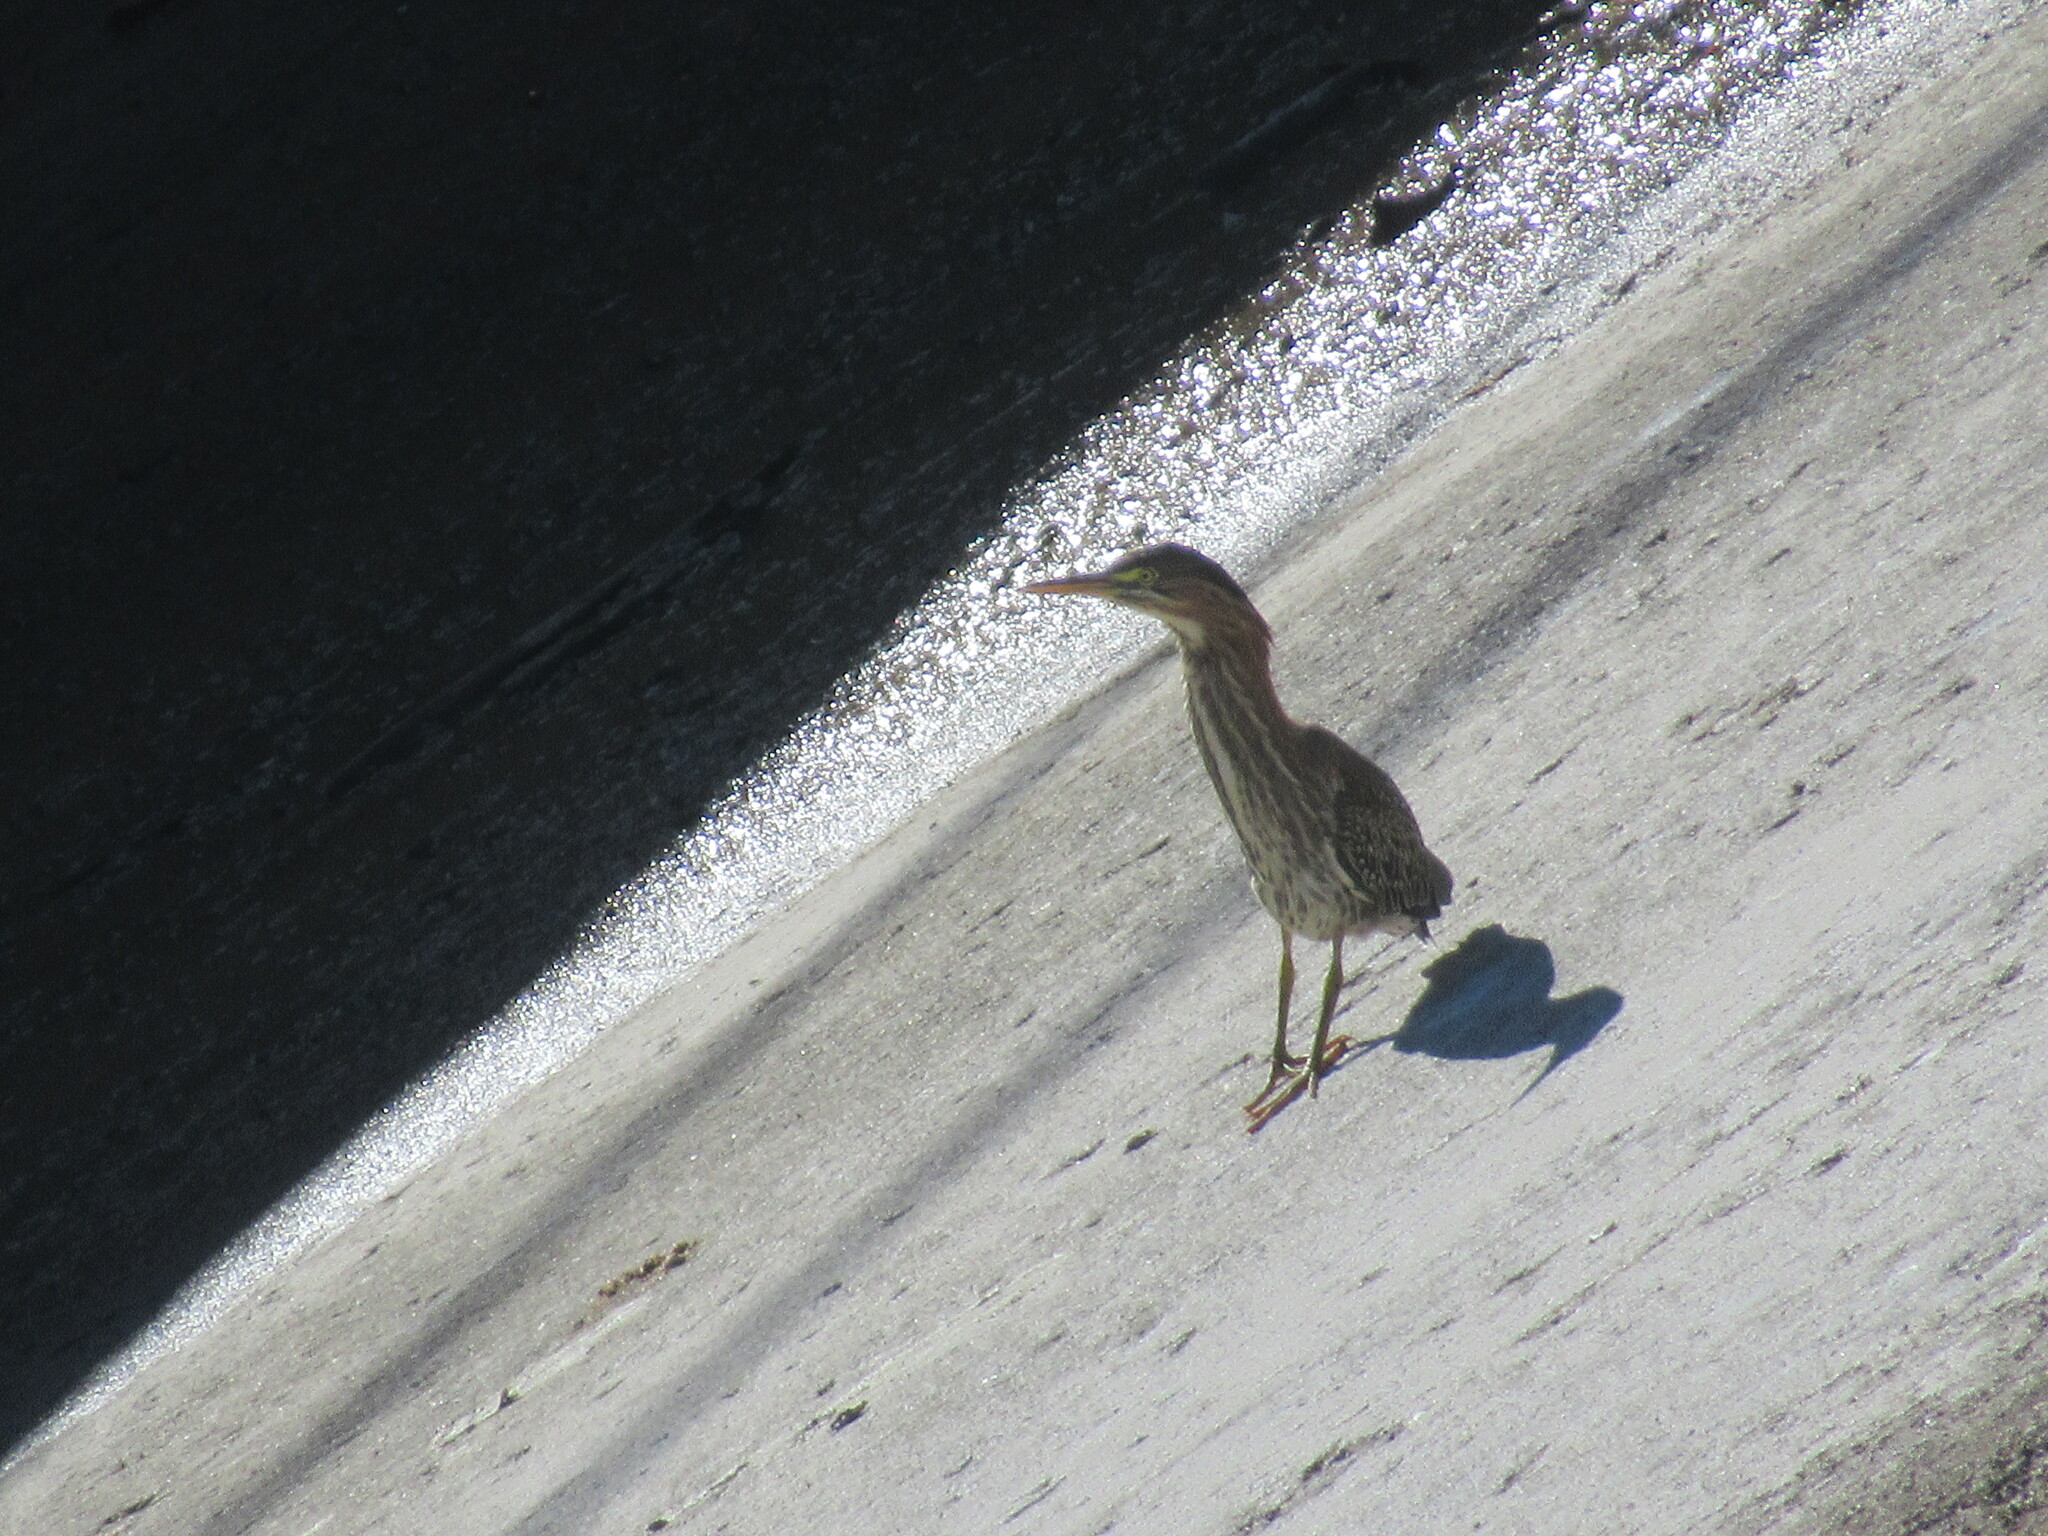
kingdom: Animalia
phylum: Chordata
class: Aves
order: Pelecaniformes
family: Ardeidae
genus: Butorides
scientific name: Butorides virescens
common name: Green heron
